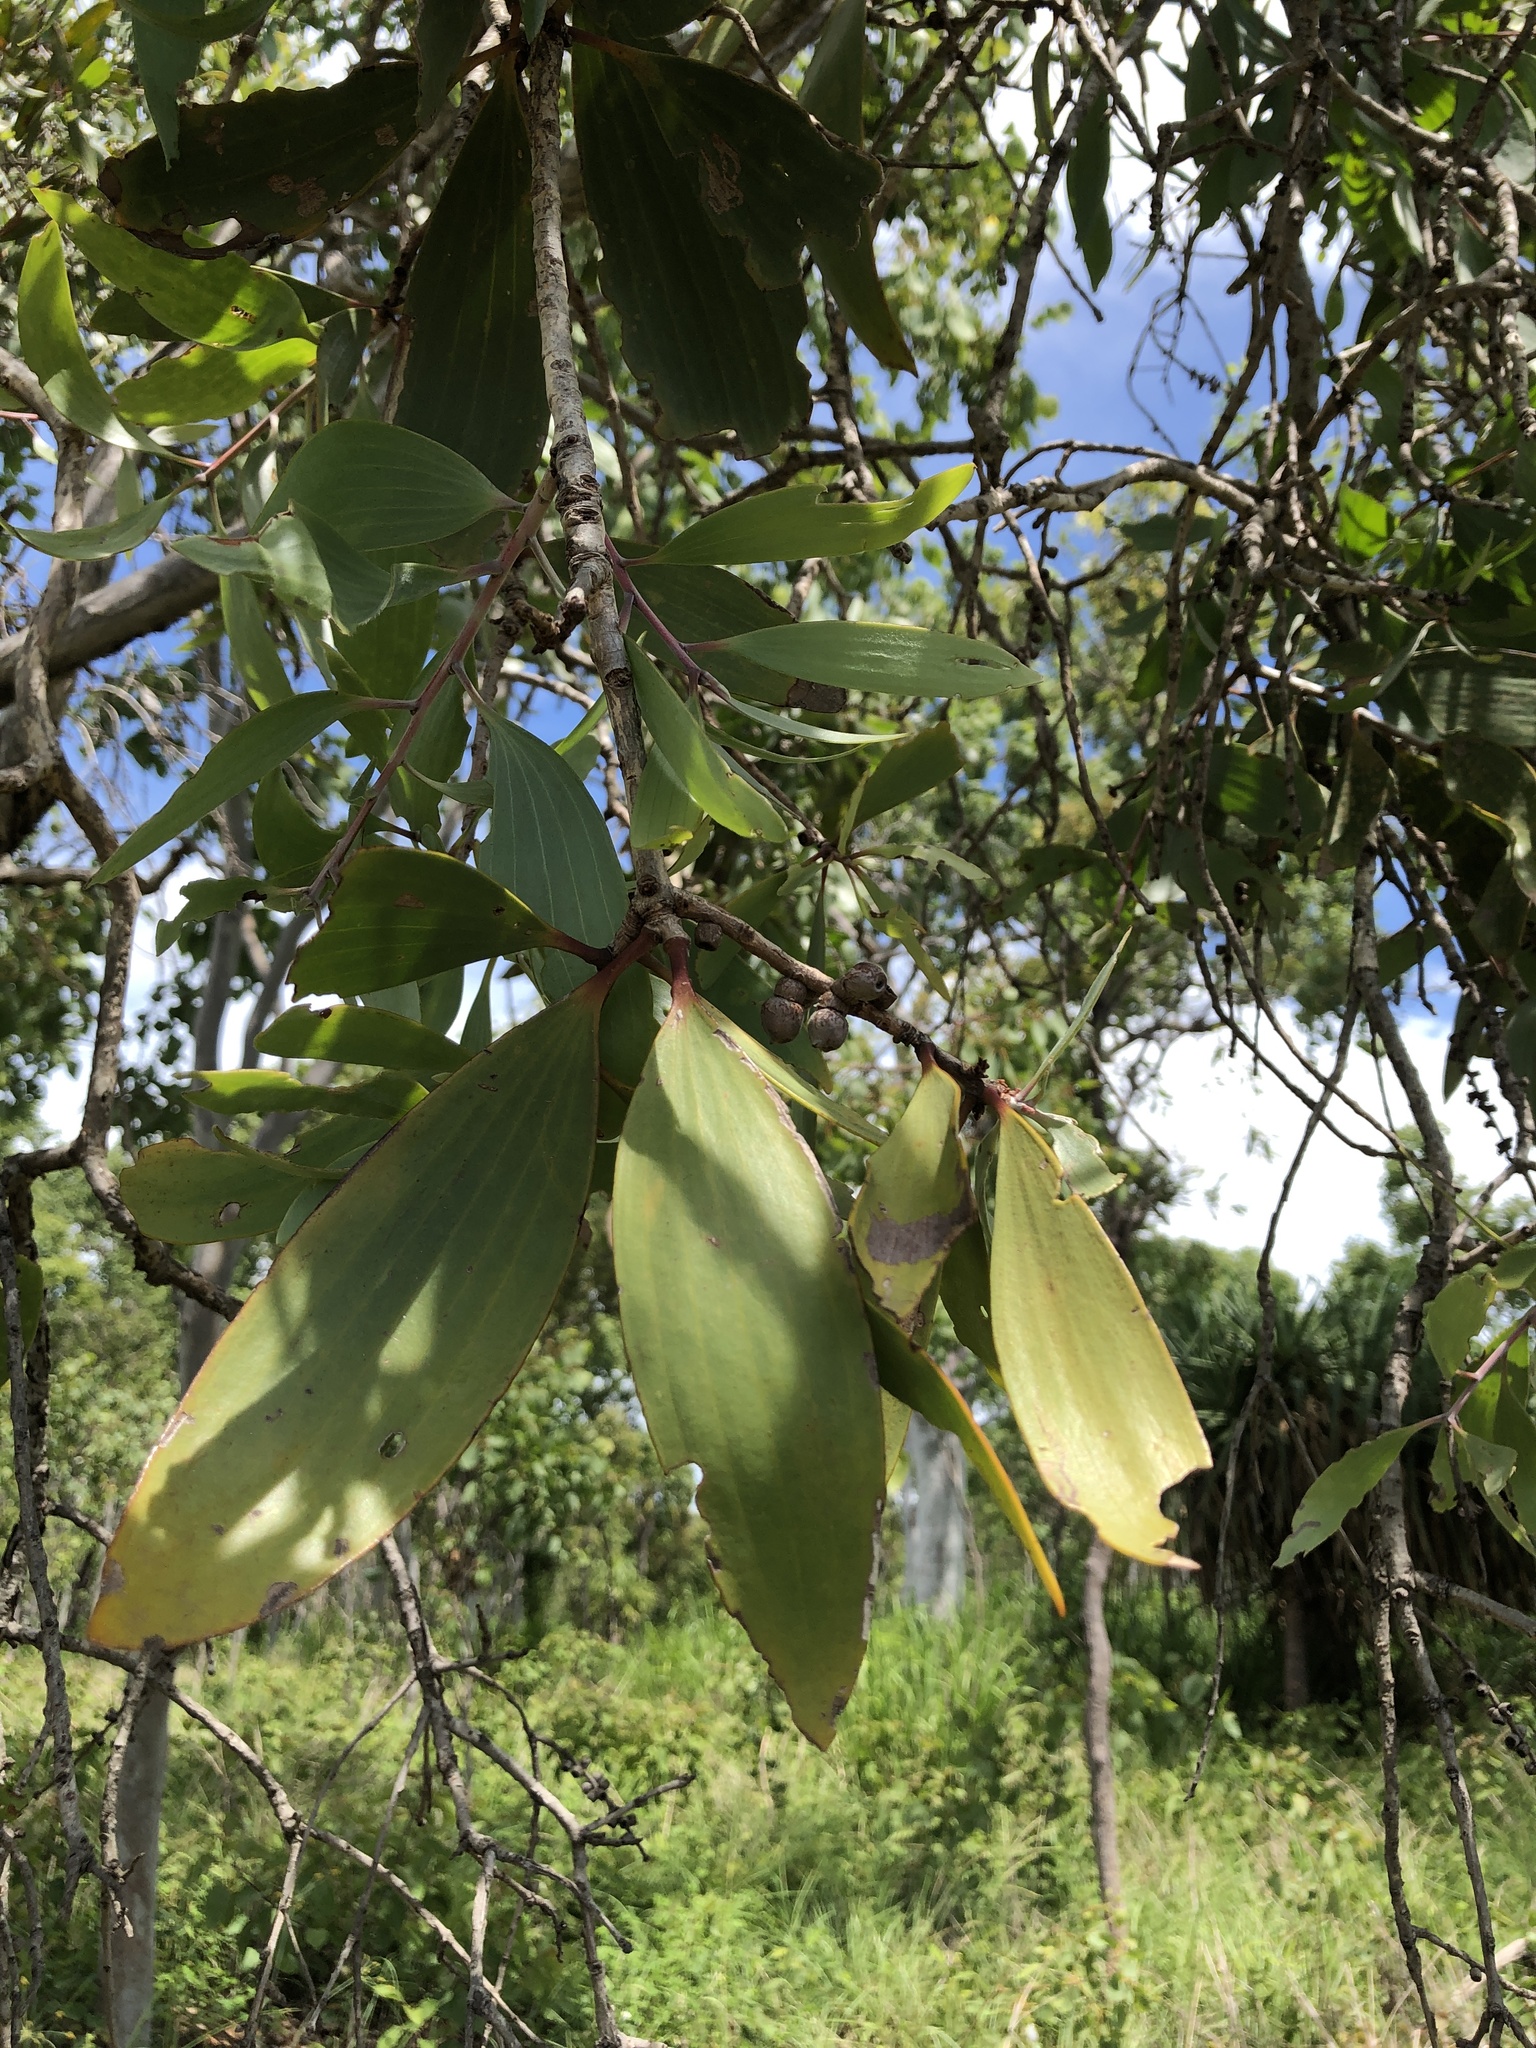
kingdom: Plantae
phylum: Tracheophyta
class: Magnoliopsida
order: Myrtales
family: Myrtaceae
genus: Melaleuca
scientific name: Melaleuca viridiflora
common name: Brown-leaved paperbark
